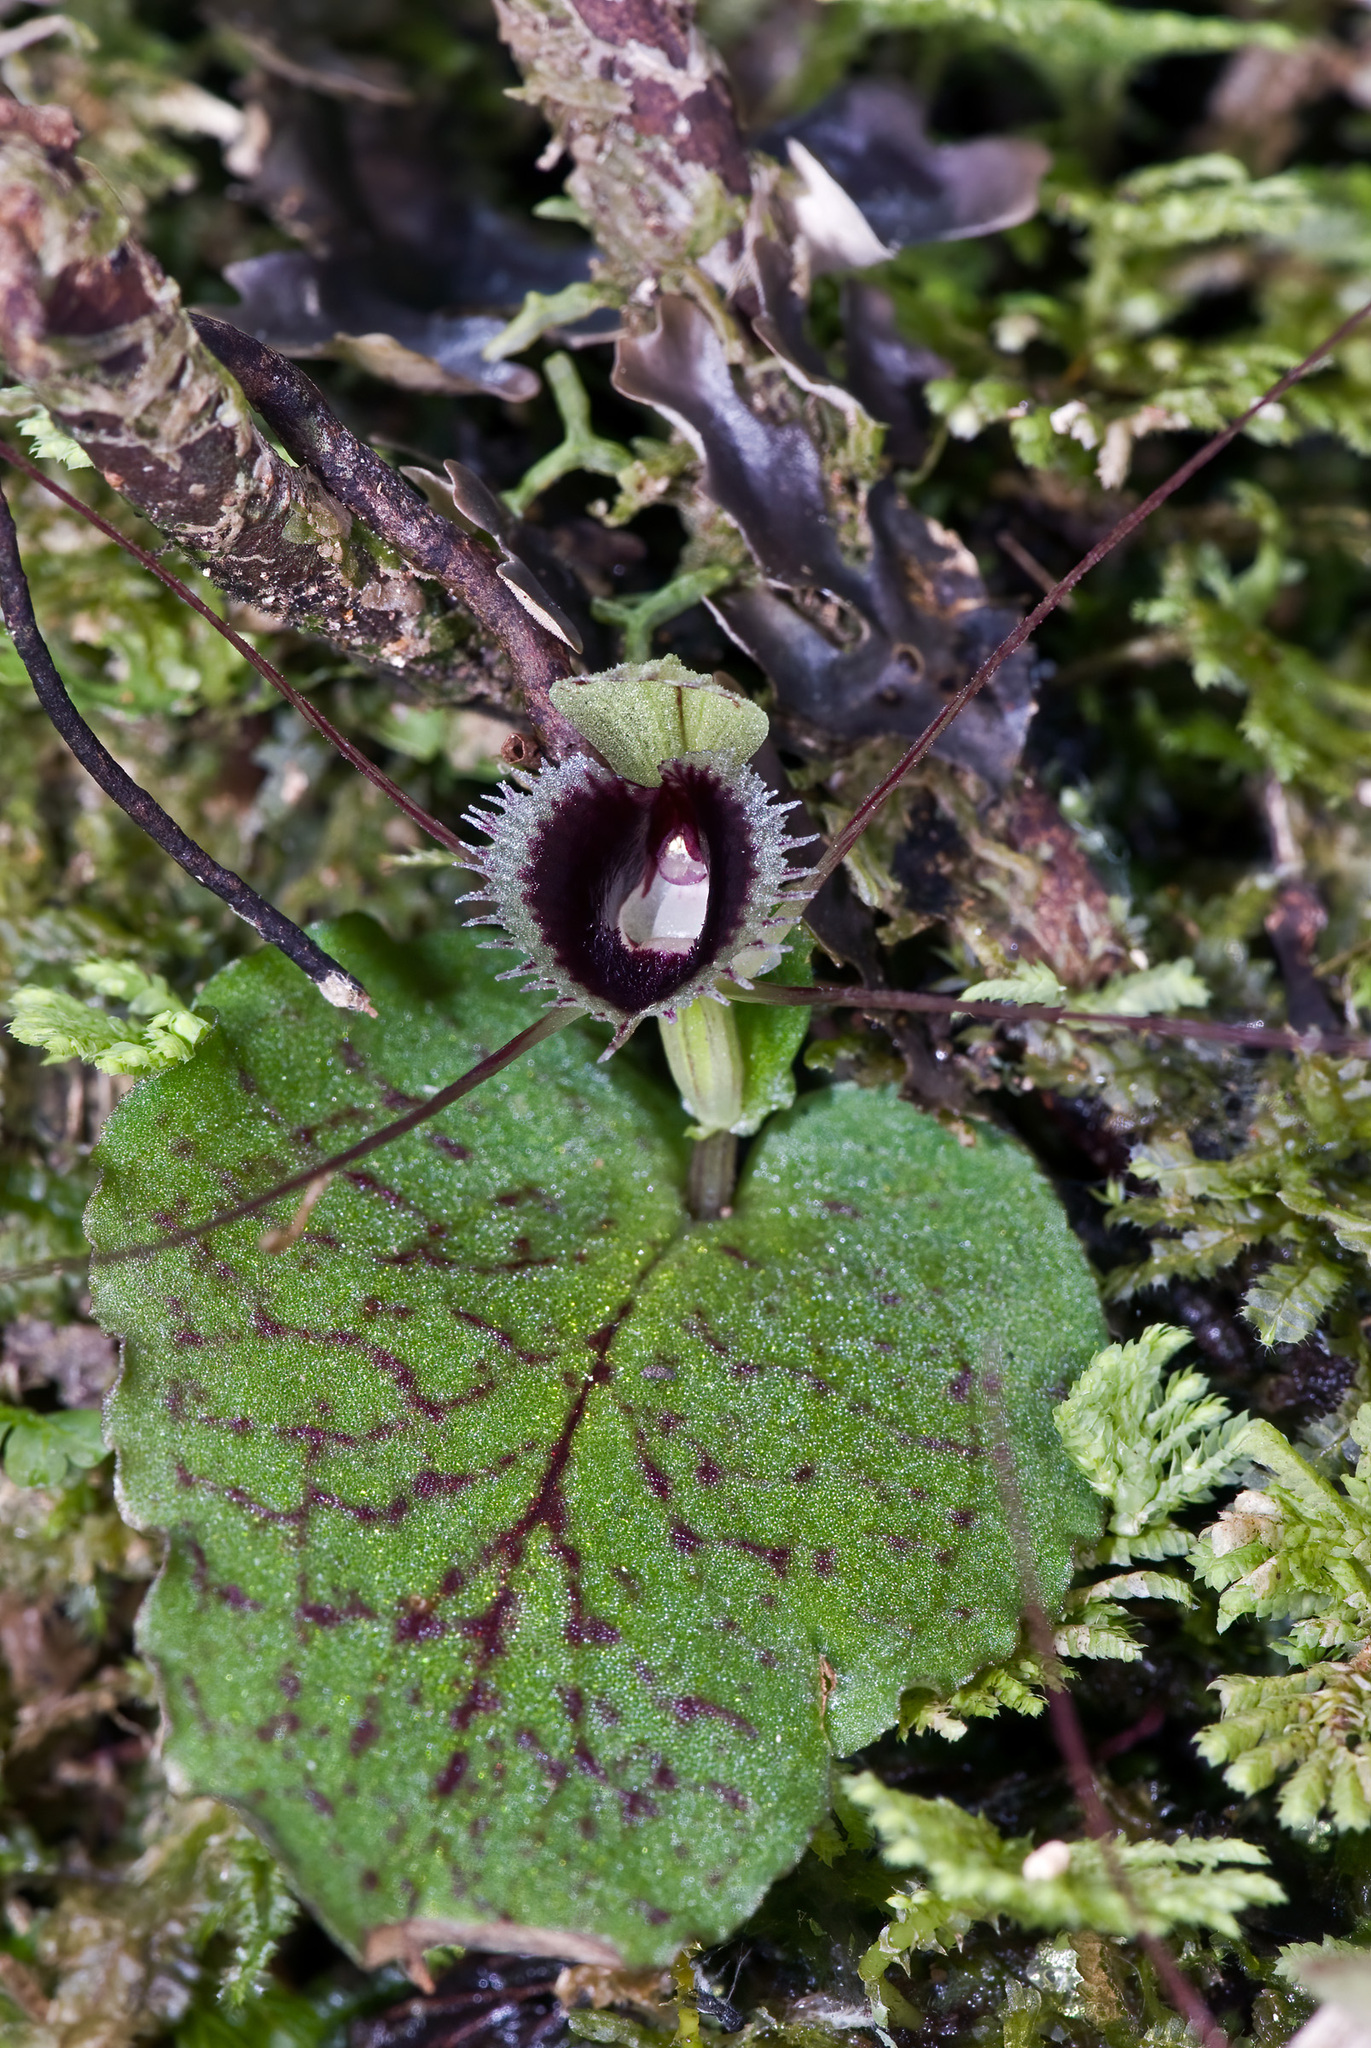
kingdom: Plantae
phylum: Tracheophyta
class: Liliopsida
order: Asparagales
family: Orchidaceae
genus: Corybas
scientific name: Corybas oblongus
